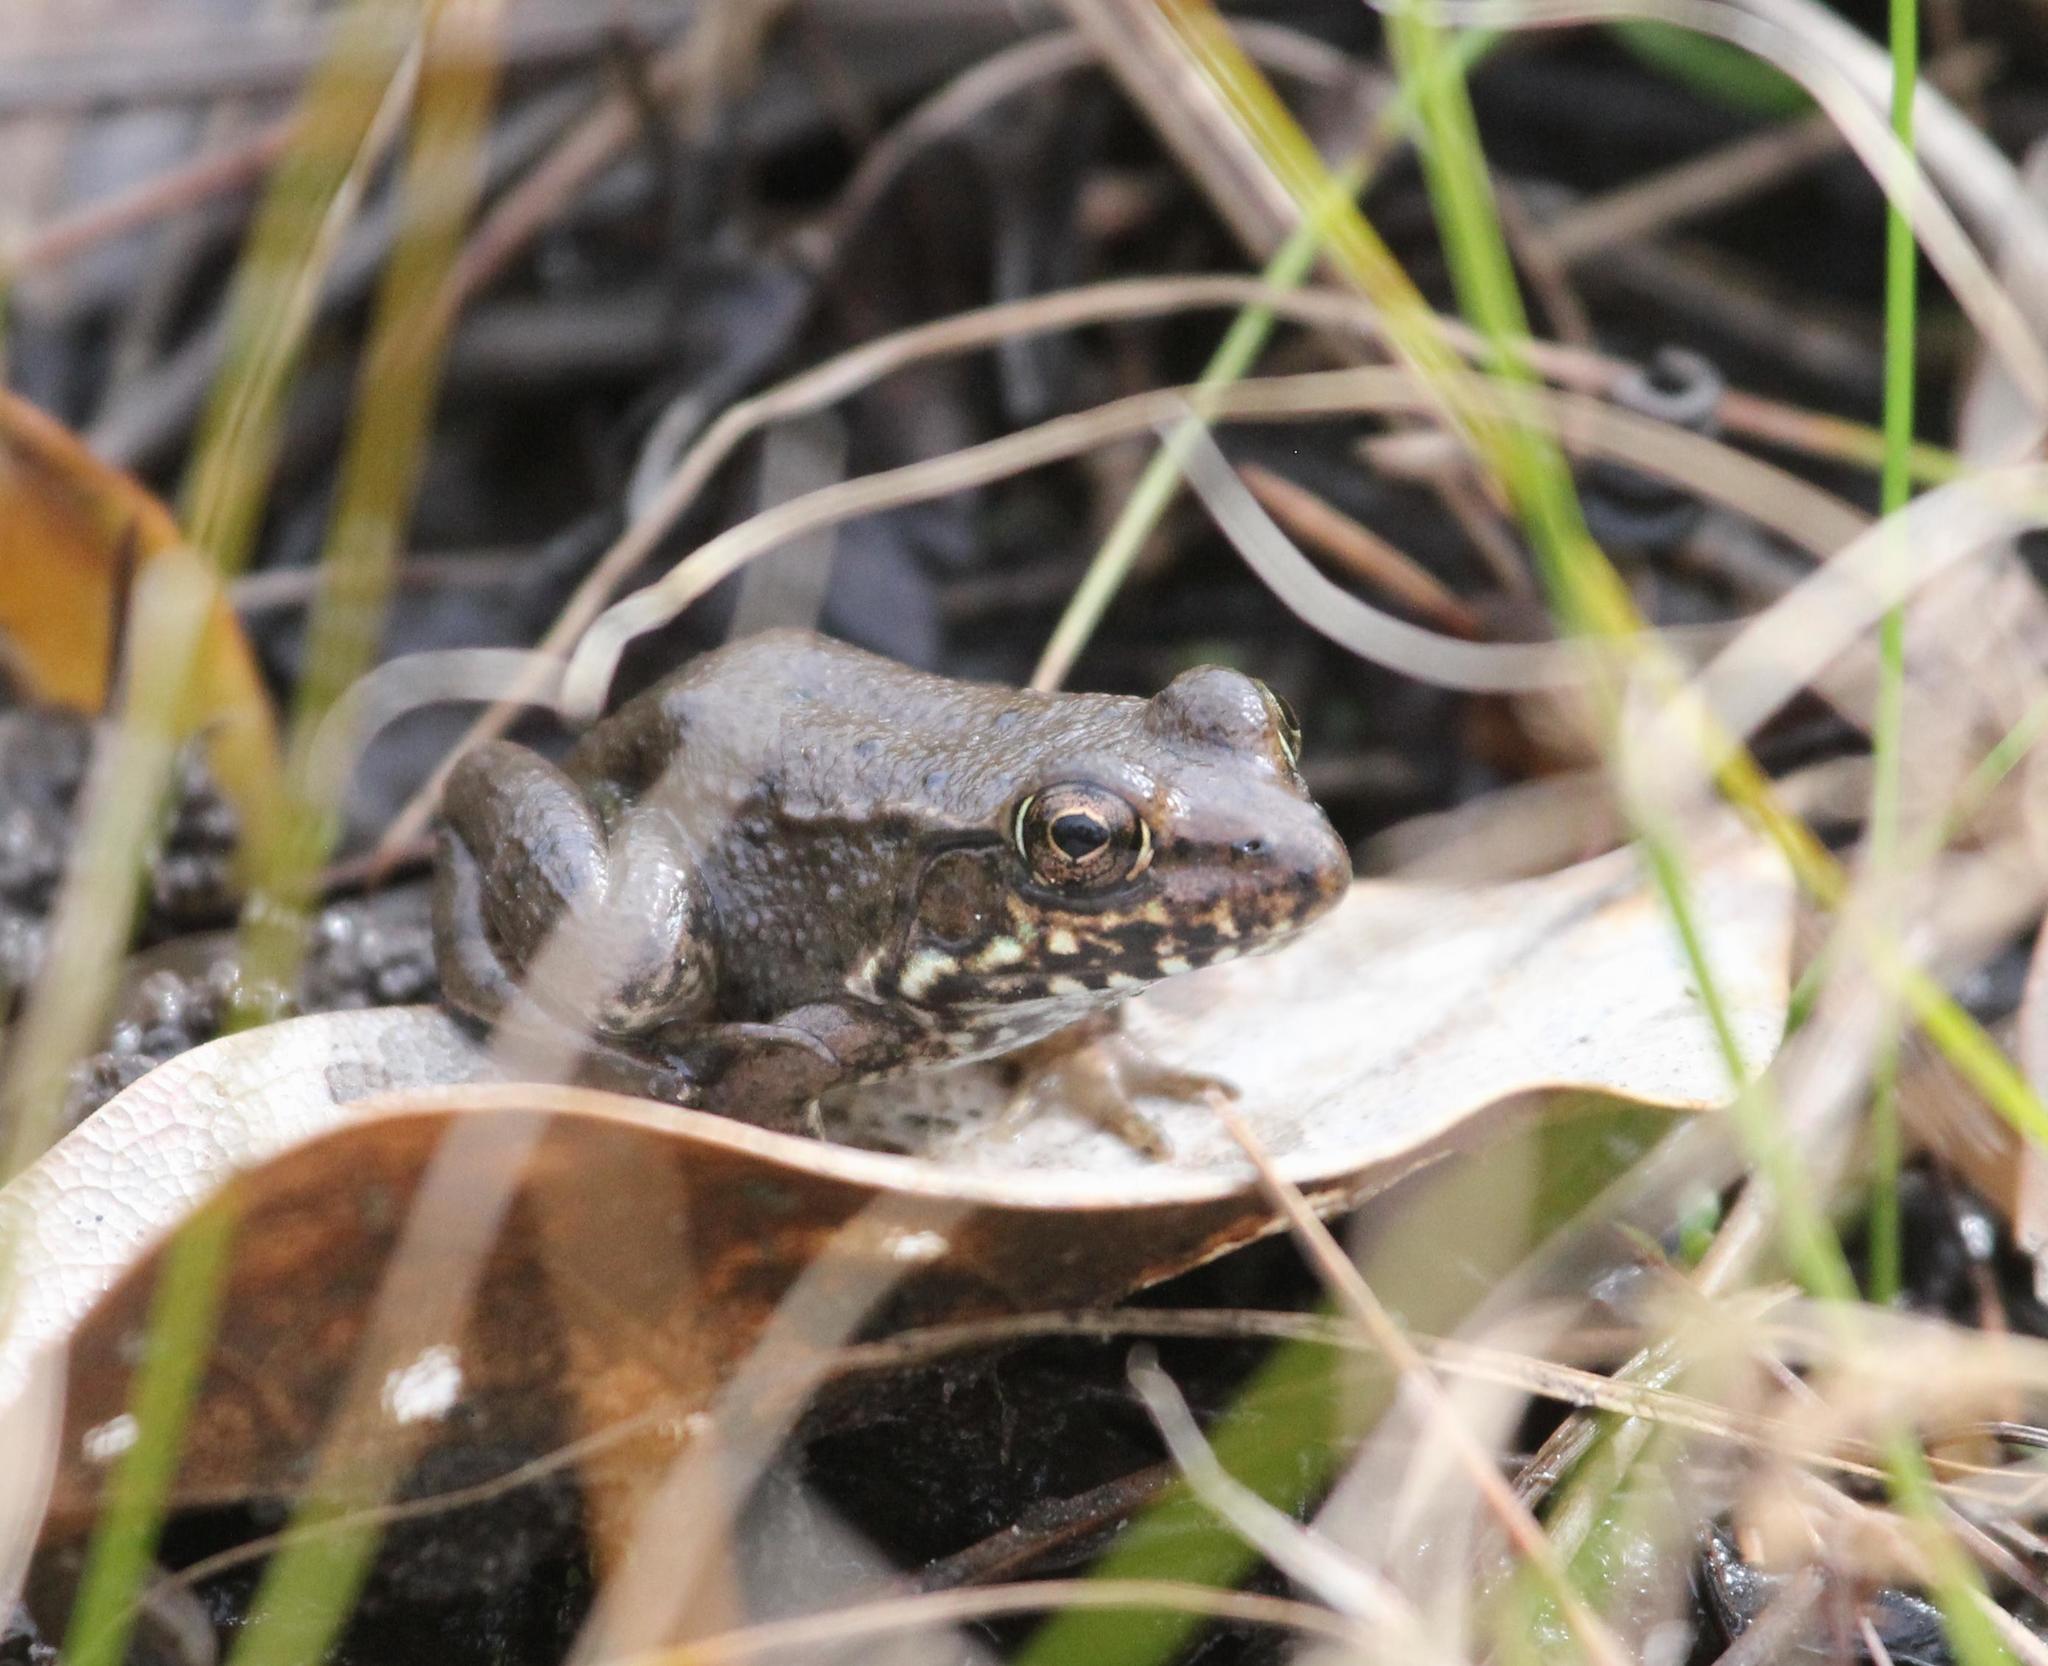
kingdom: Animalia
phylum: Chordata
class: Amphibia
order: Anura
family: Ranidae
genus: Lithobates
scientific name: Lithobates clamitans
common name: Green frog
